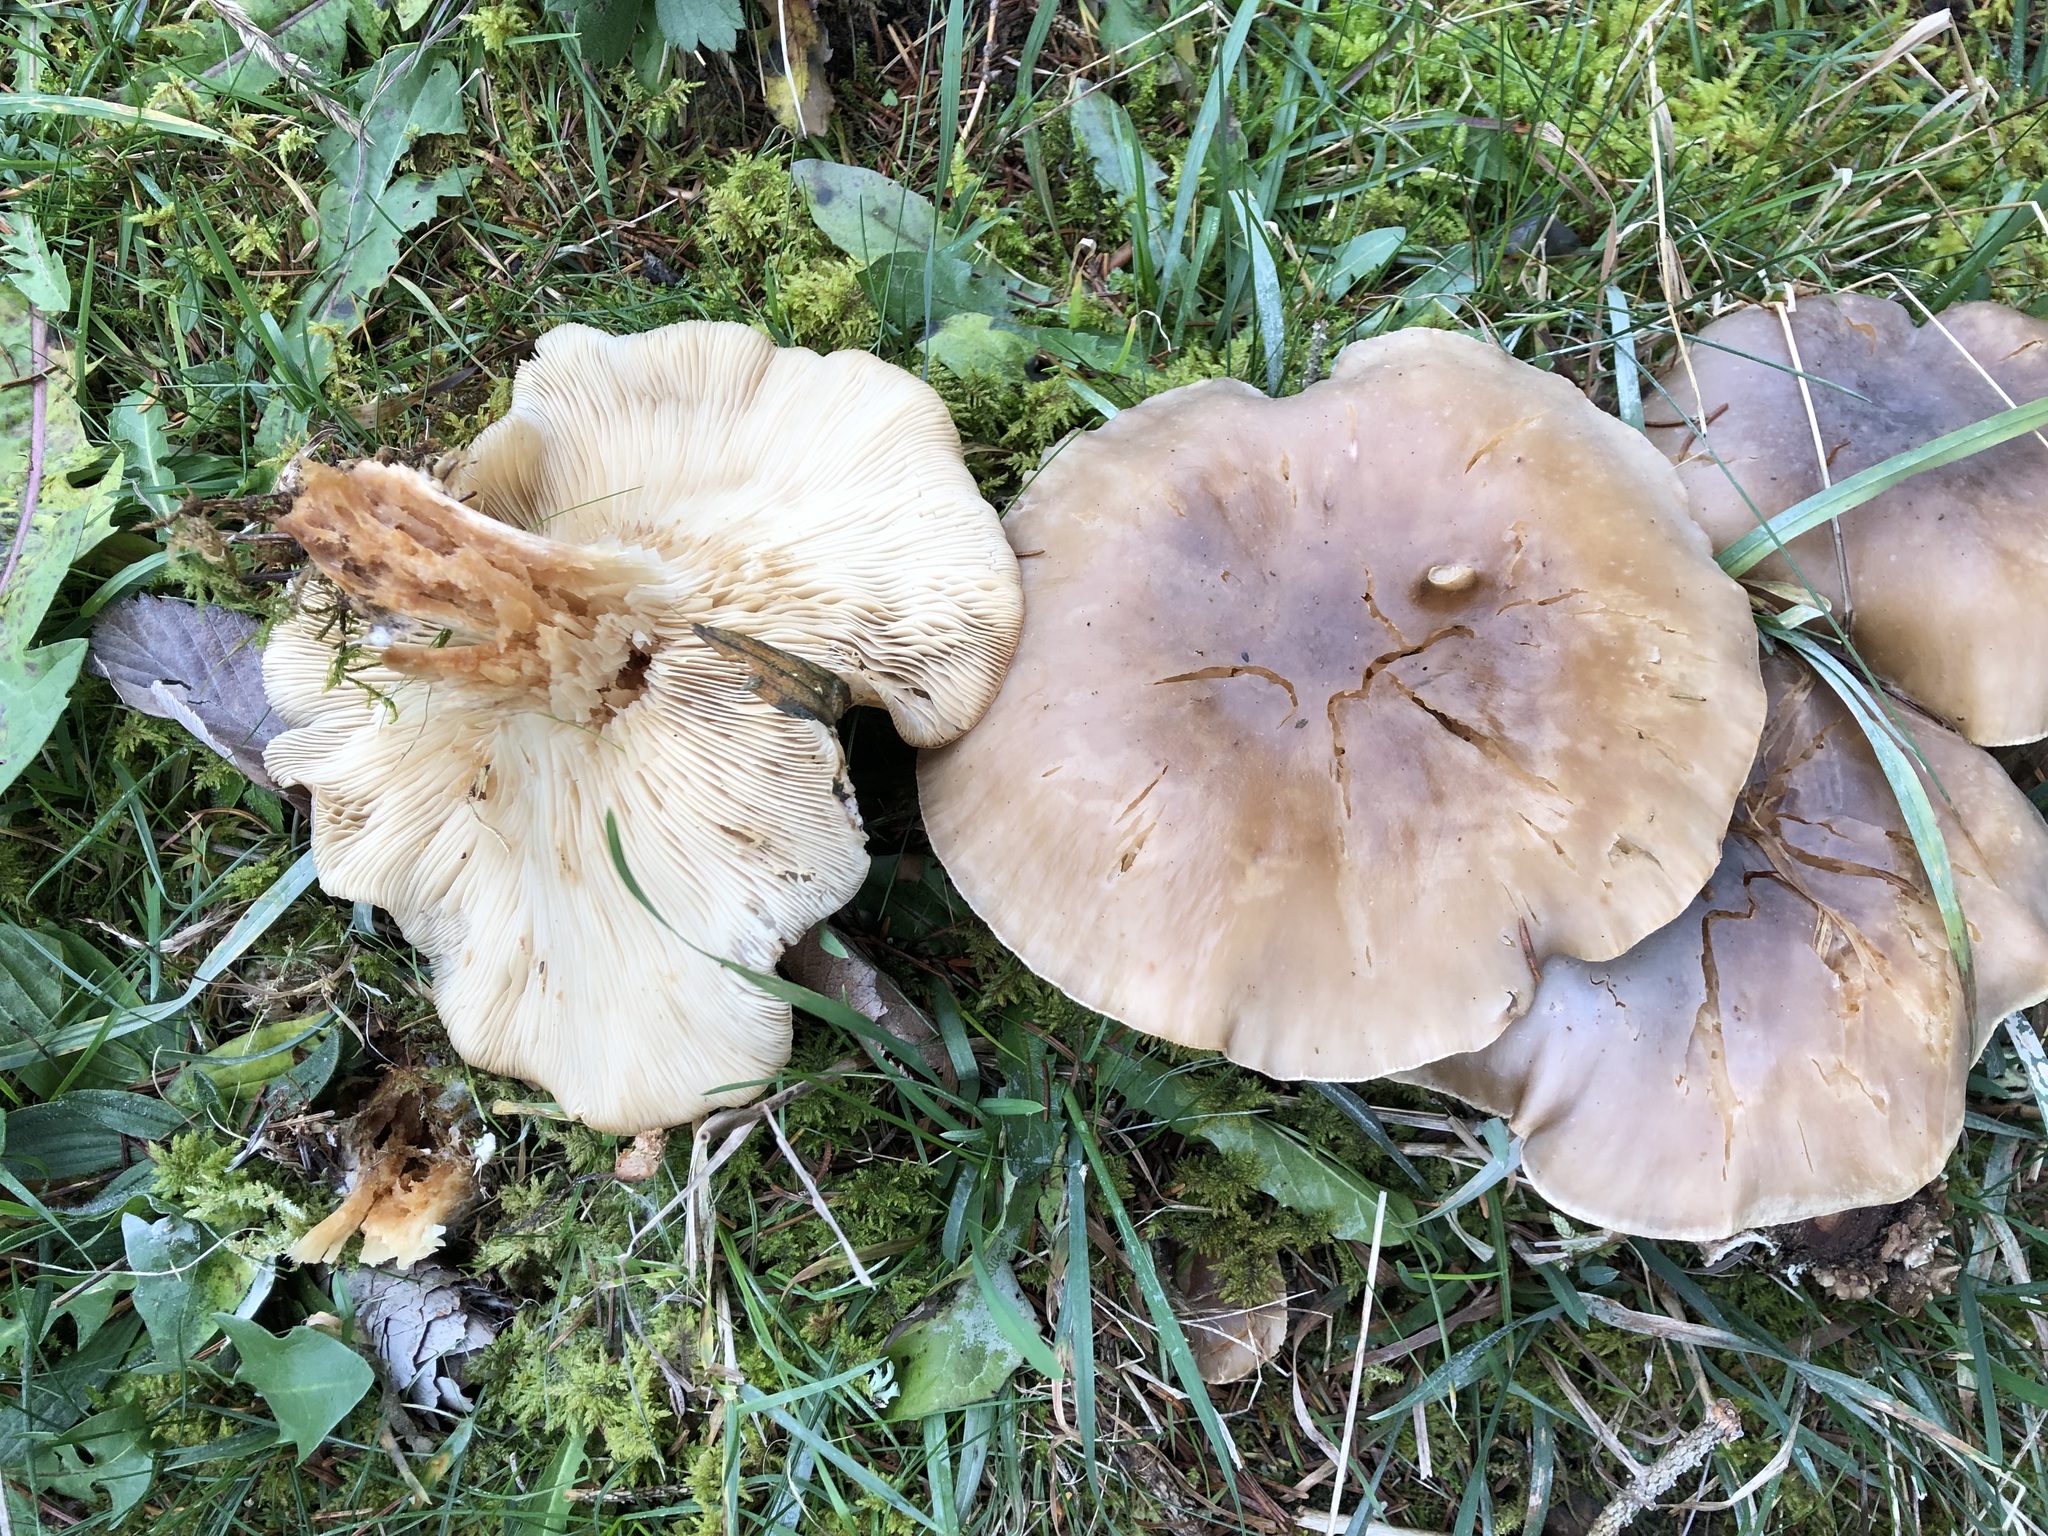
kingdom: Fungi
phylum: Basidiomycota
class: Agaricomycetes
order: Agaricales
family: Tricholomataceae
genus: Clitocybe
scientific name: Clitocybe nebularis
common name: Clouded agaric
